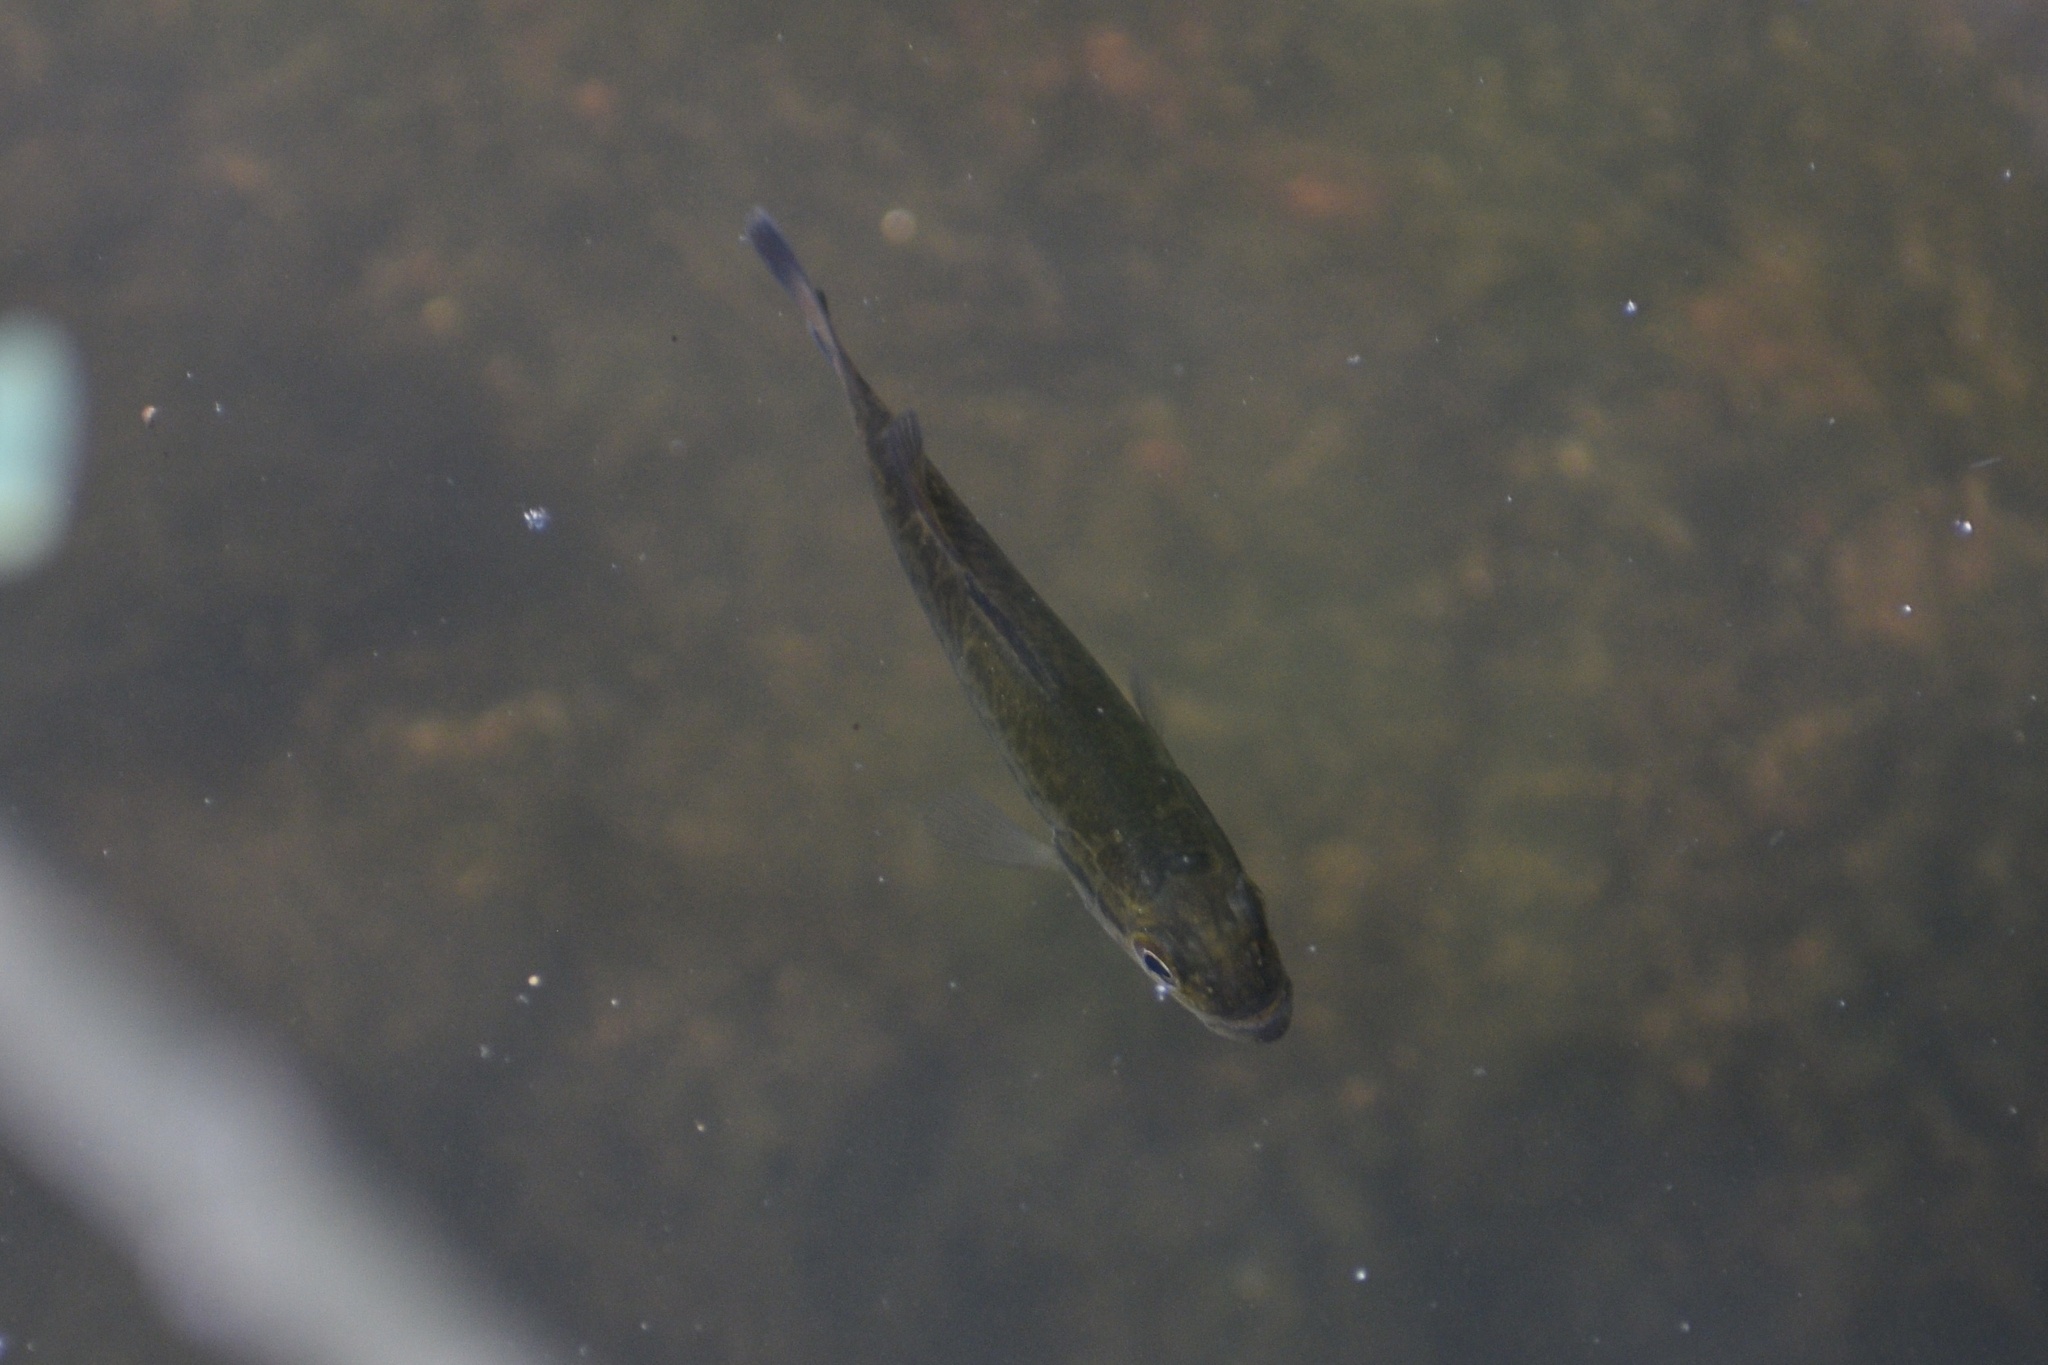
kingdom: Animalia
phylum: Chordata
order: Perciformes
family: Centrarchidae
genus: Micropterus
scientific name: Micropterus
